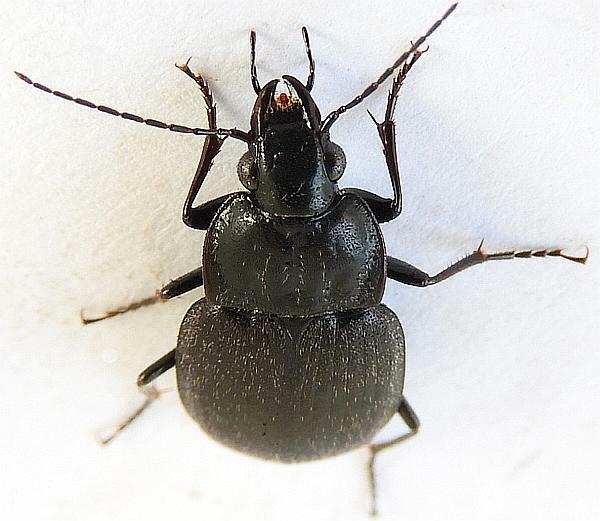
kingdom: Animalia
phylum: Arthropoda
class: Insecta
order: Coleoptera
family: Carabidae
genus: Chlaenius
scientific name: Chlaenius niger
